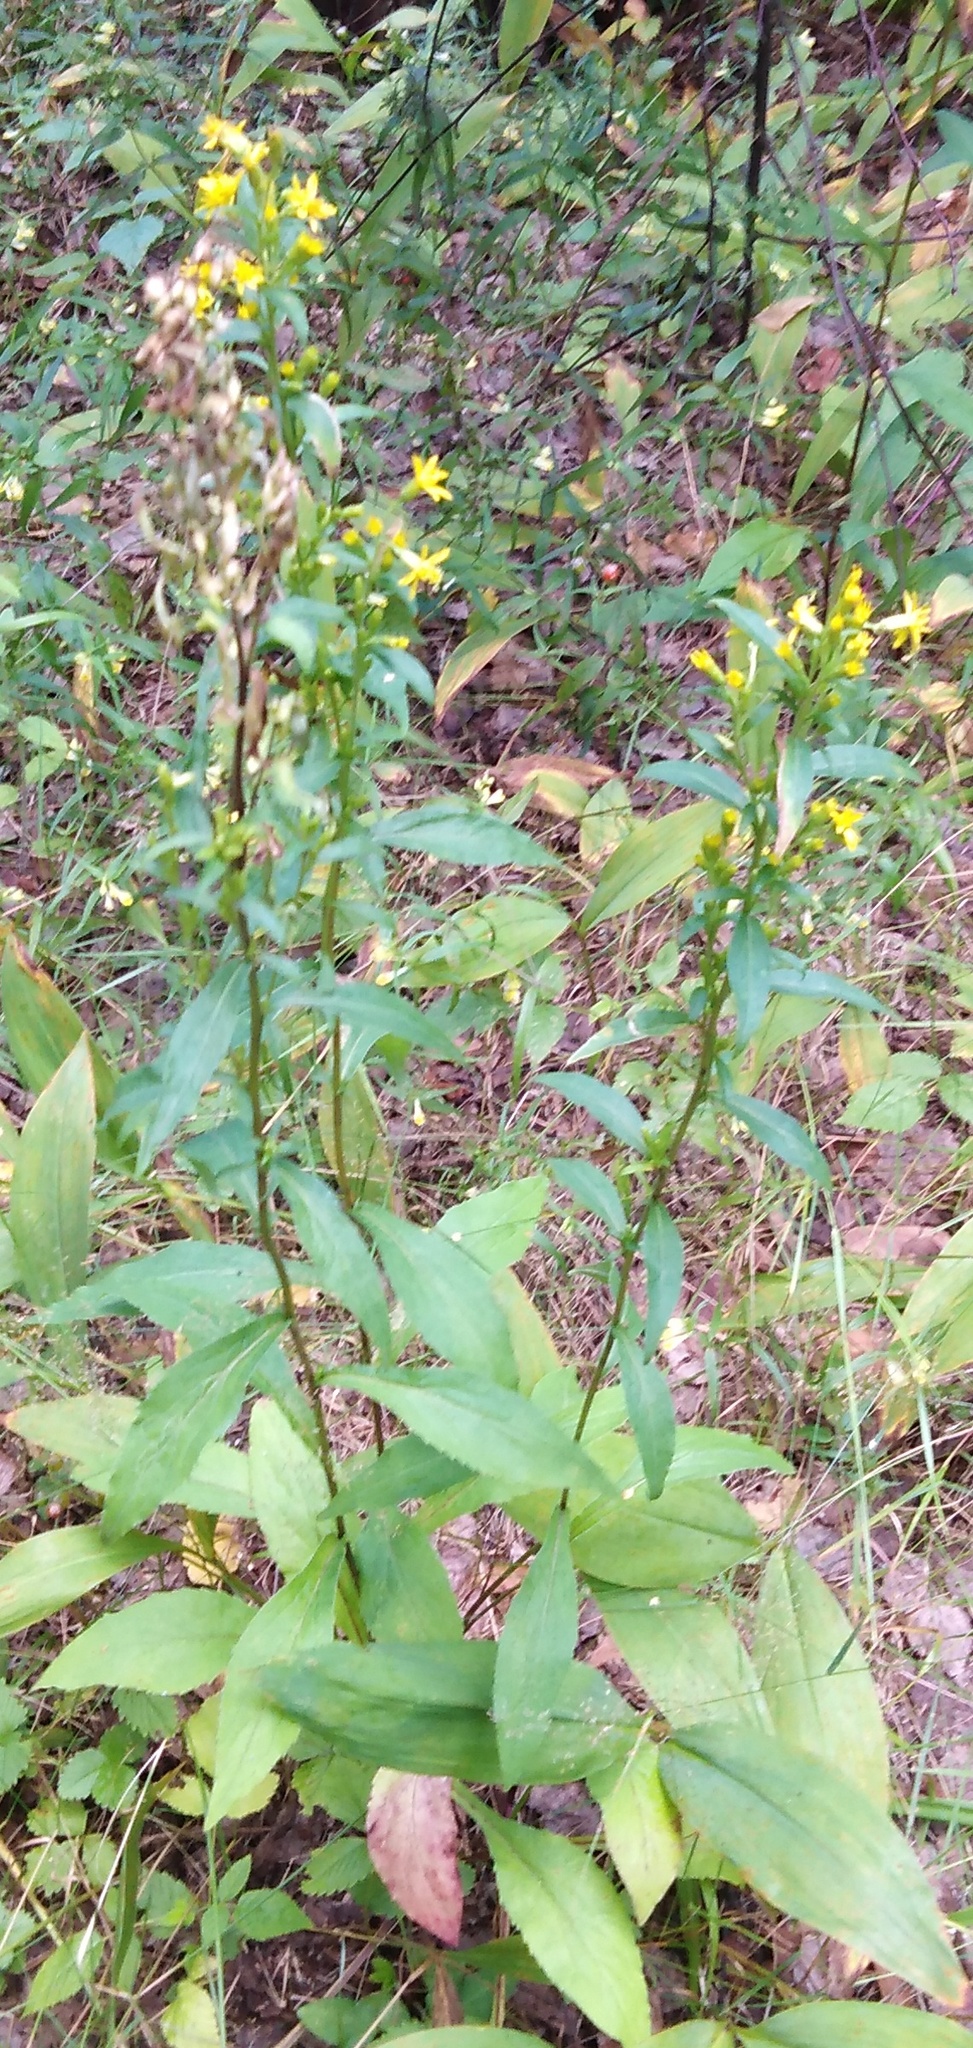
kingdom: Plantae
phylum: Tracheophyta
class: Magnoliopsida
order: Asterales
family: Asteraceae
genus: Solidago
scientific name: Solidago virgaurea
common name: Goldenrod
